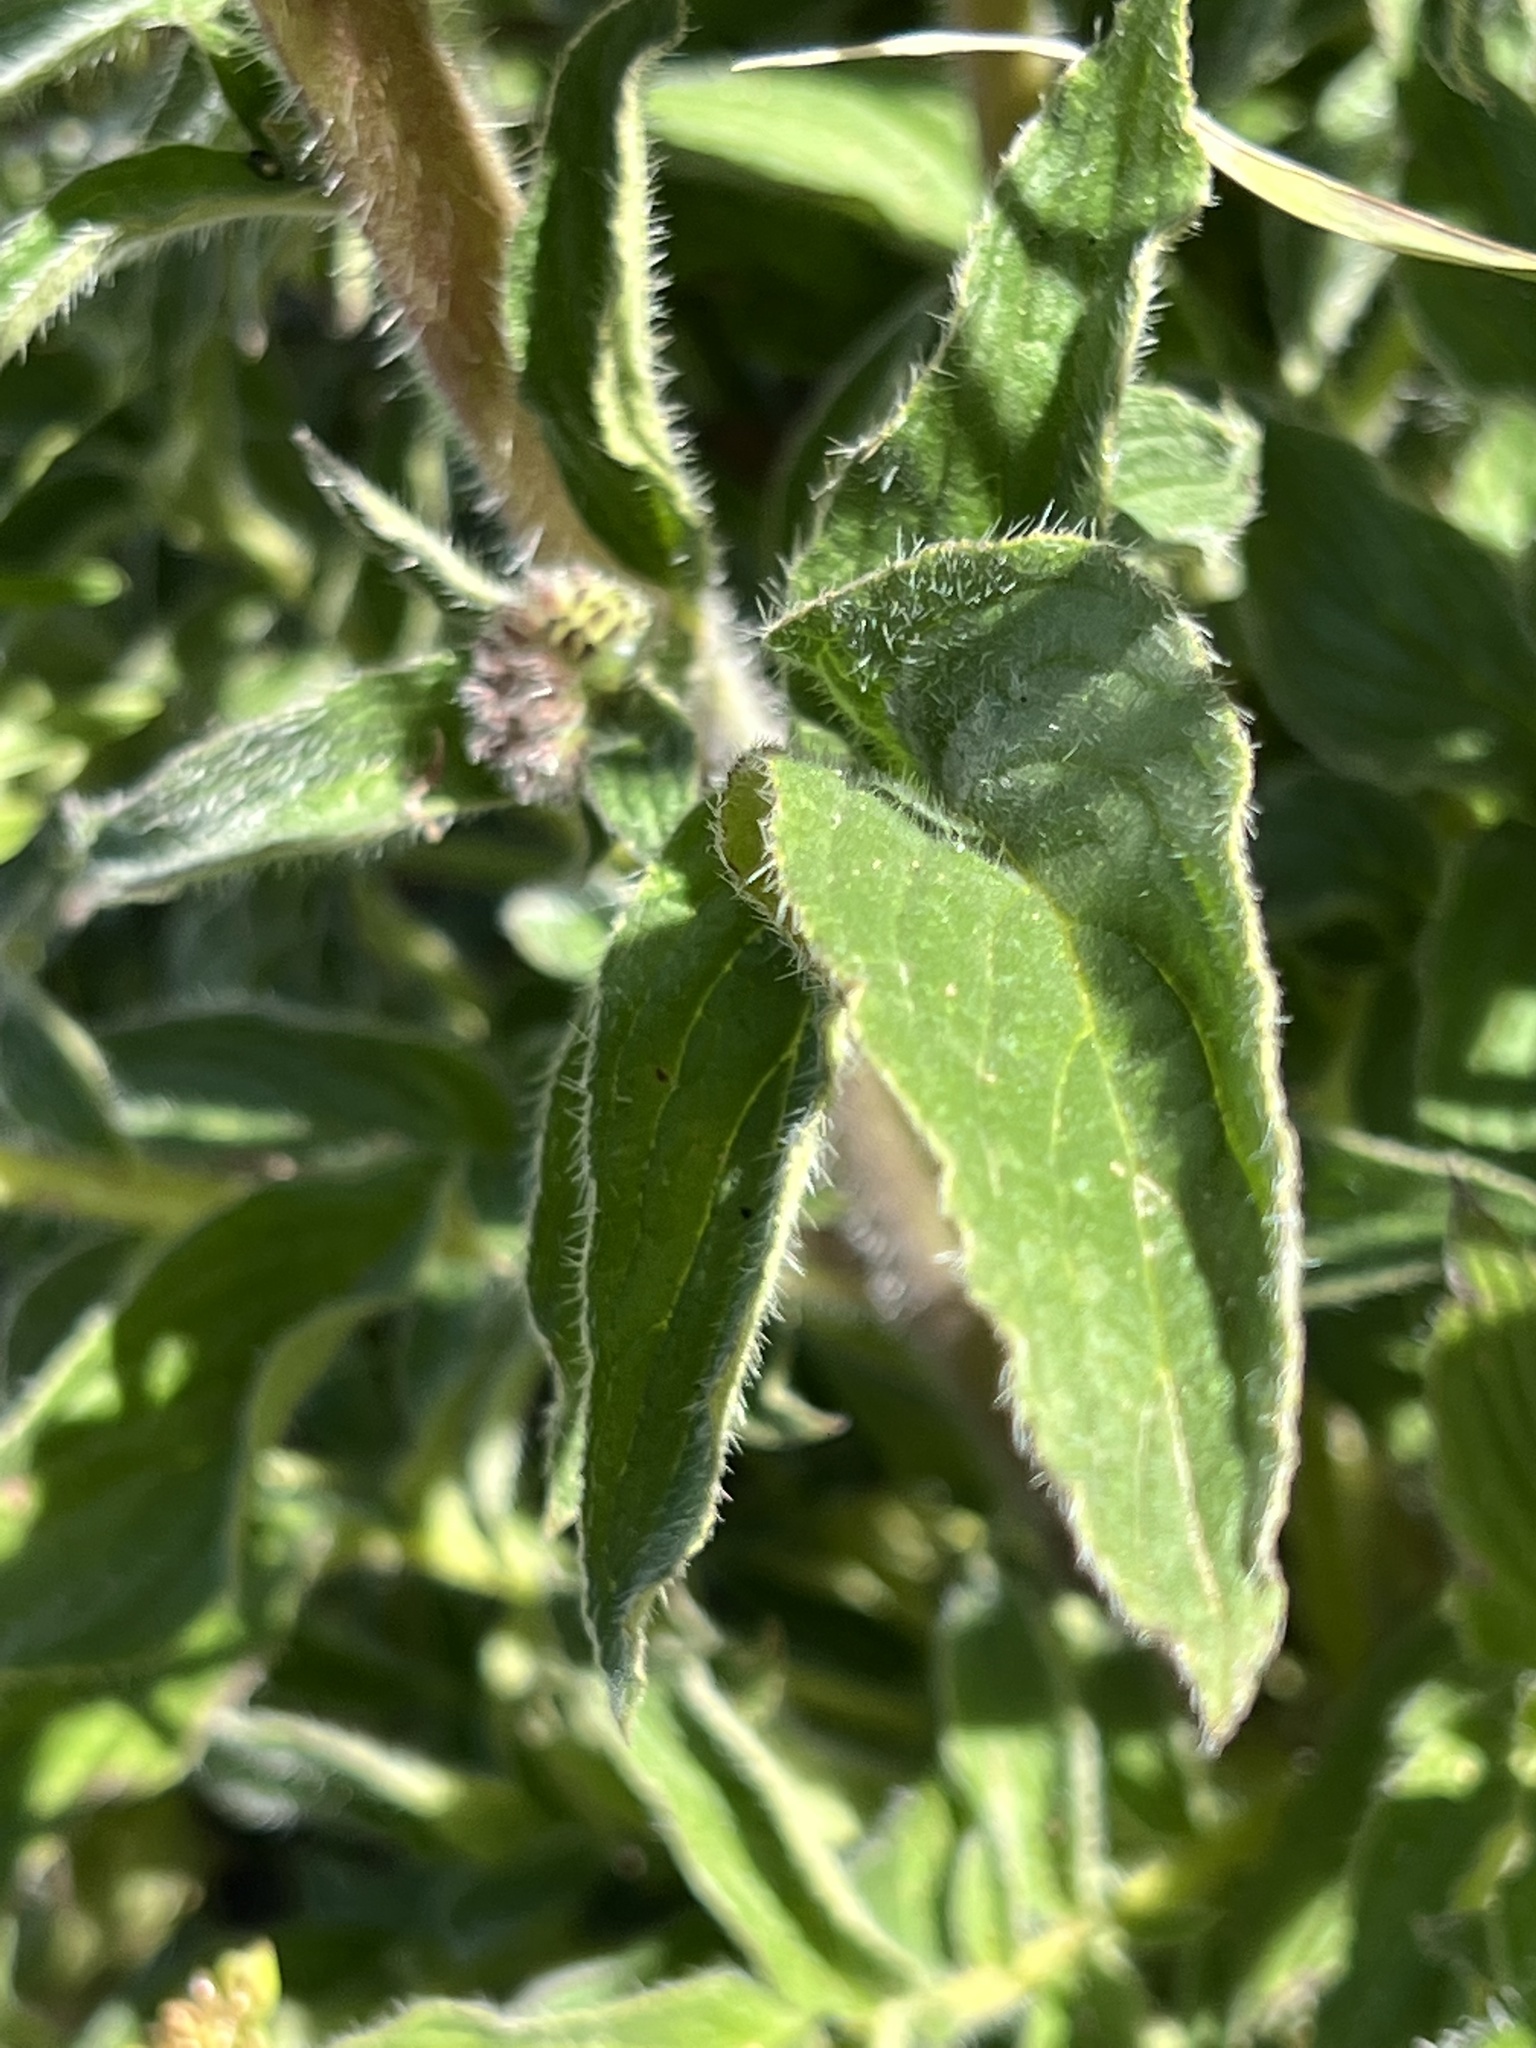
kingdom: Plantae
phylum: Tracheophyta
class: Magnoliopsida
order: Boraginales
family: Hydrophyllaceae
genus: Phacelia
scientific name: Phacelia californica
